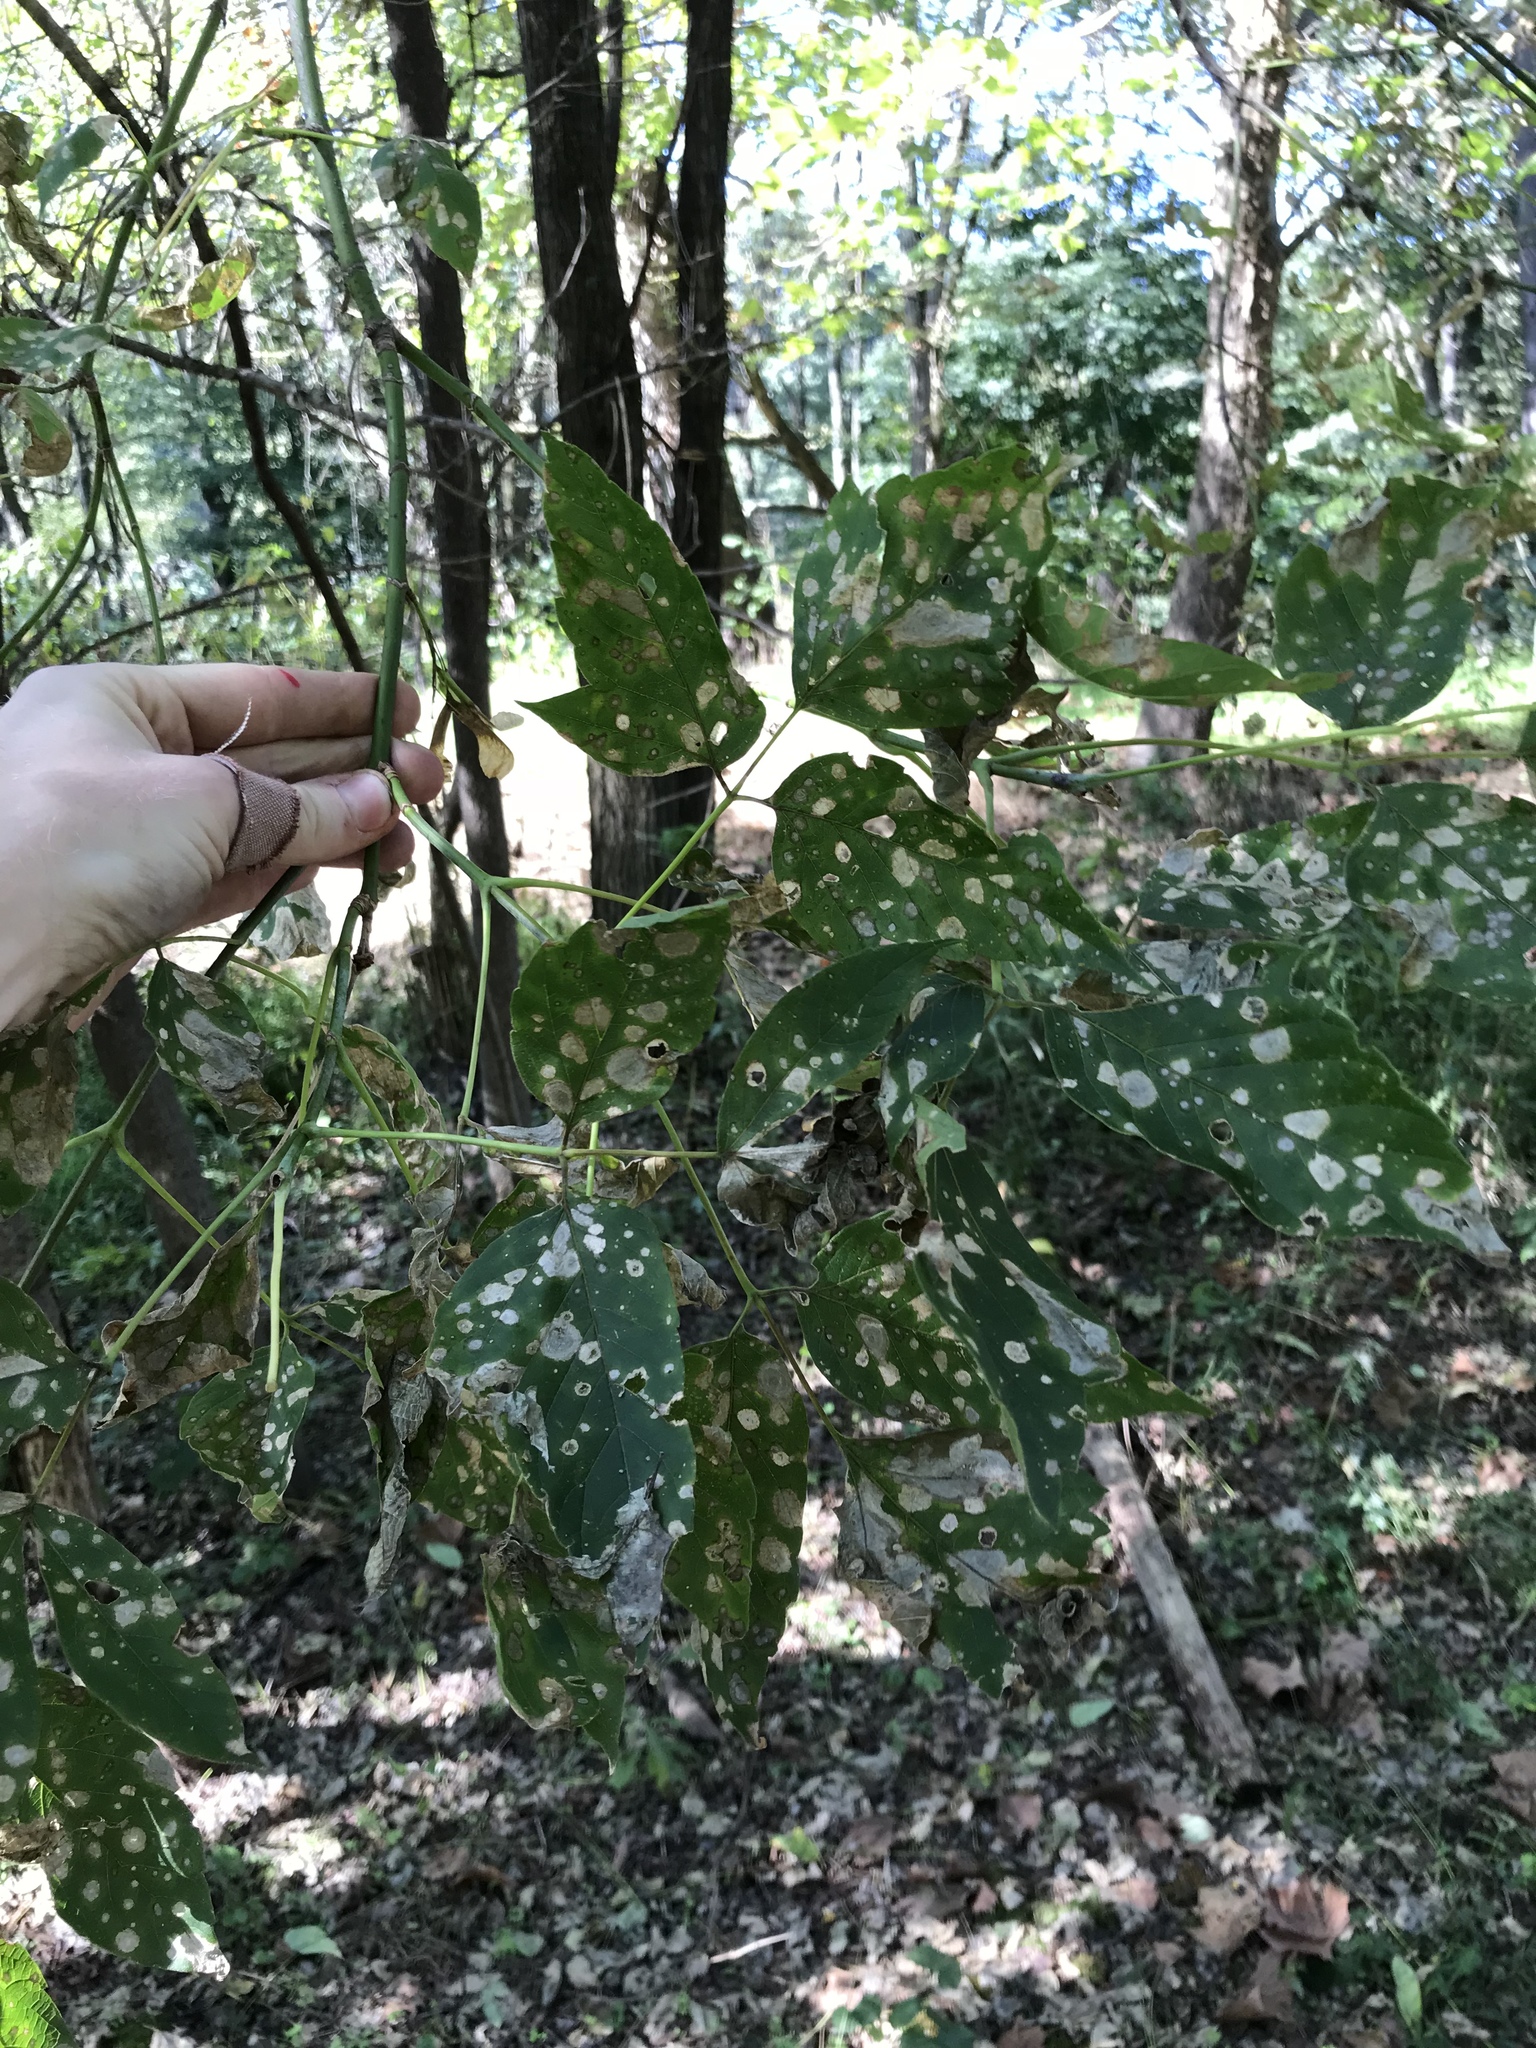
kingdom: Plantae
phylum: Tracheophyta
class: Magnoliopsida
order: Sapindales
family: Sapindaceae
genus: Acer
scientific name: Acer negundo
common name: Ashleaf maple
